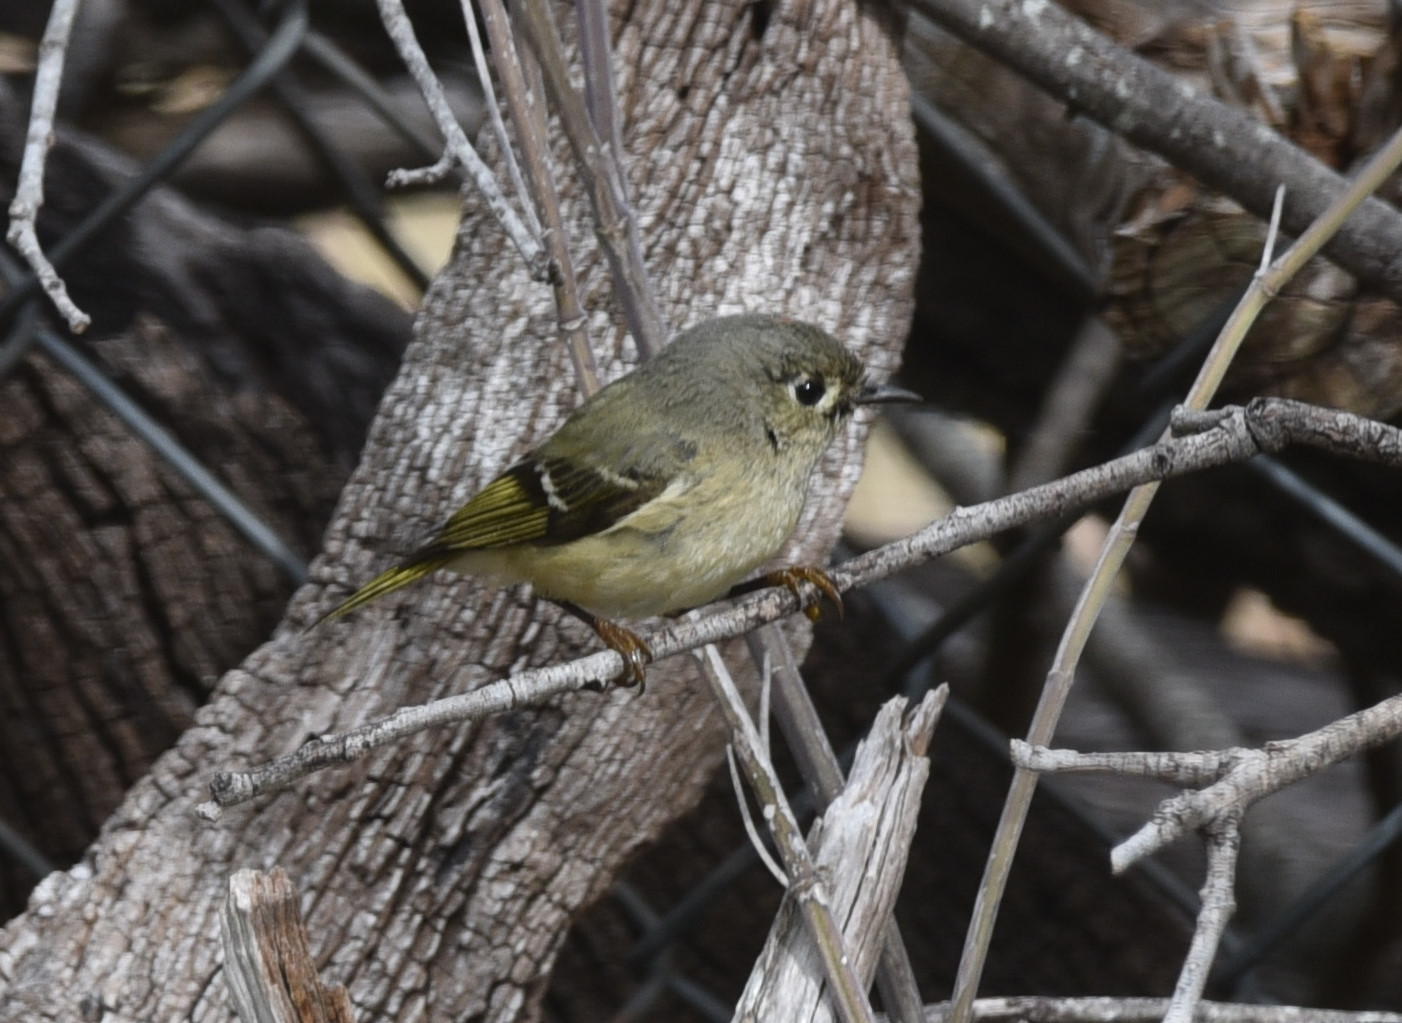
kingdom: Animalia
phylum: Chordata
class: Aves
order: Passeriformes
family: Regulidae
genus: Regulus
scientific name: Regulus calendula
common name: Ruby-crowned kinglet
